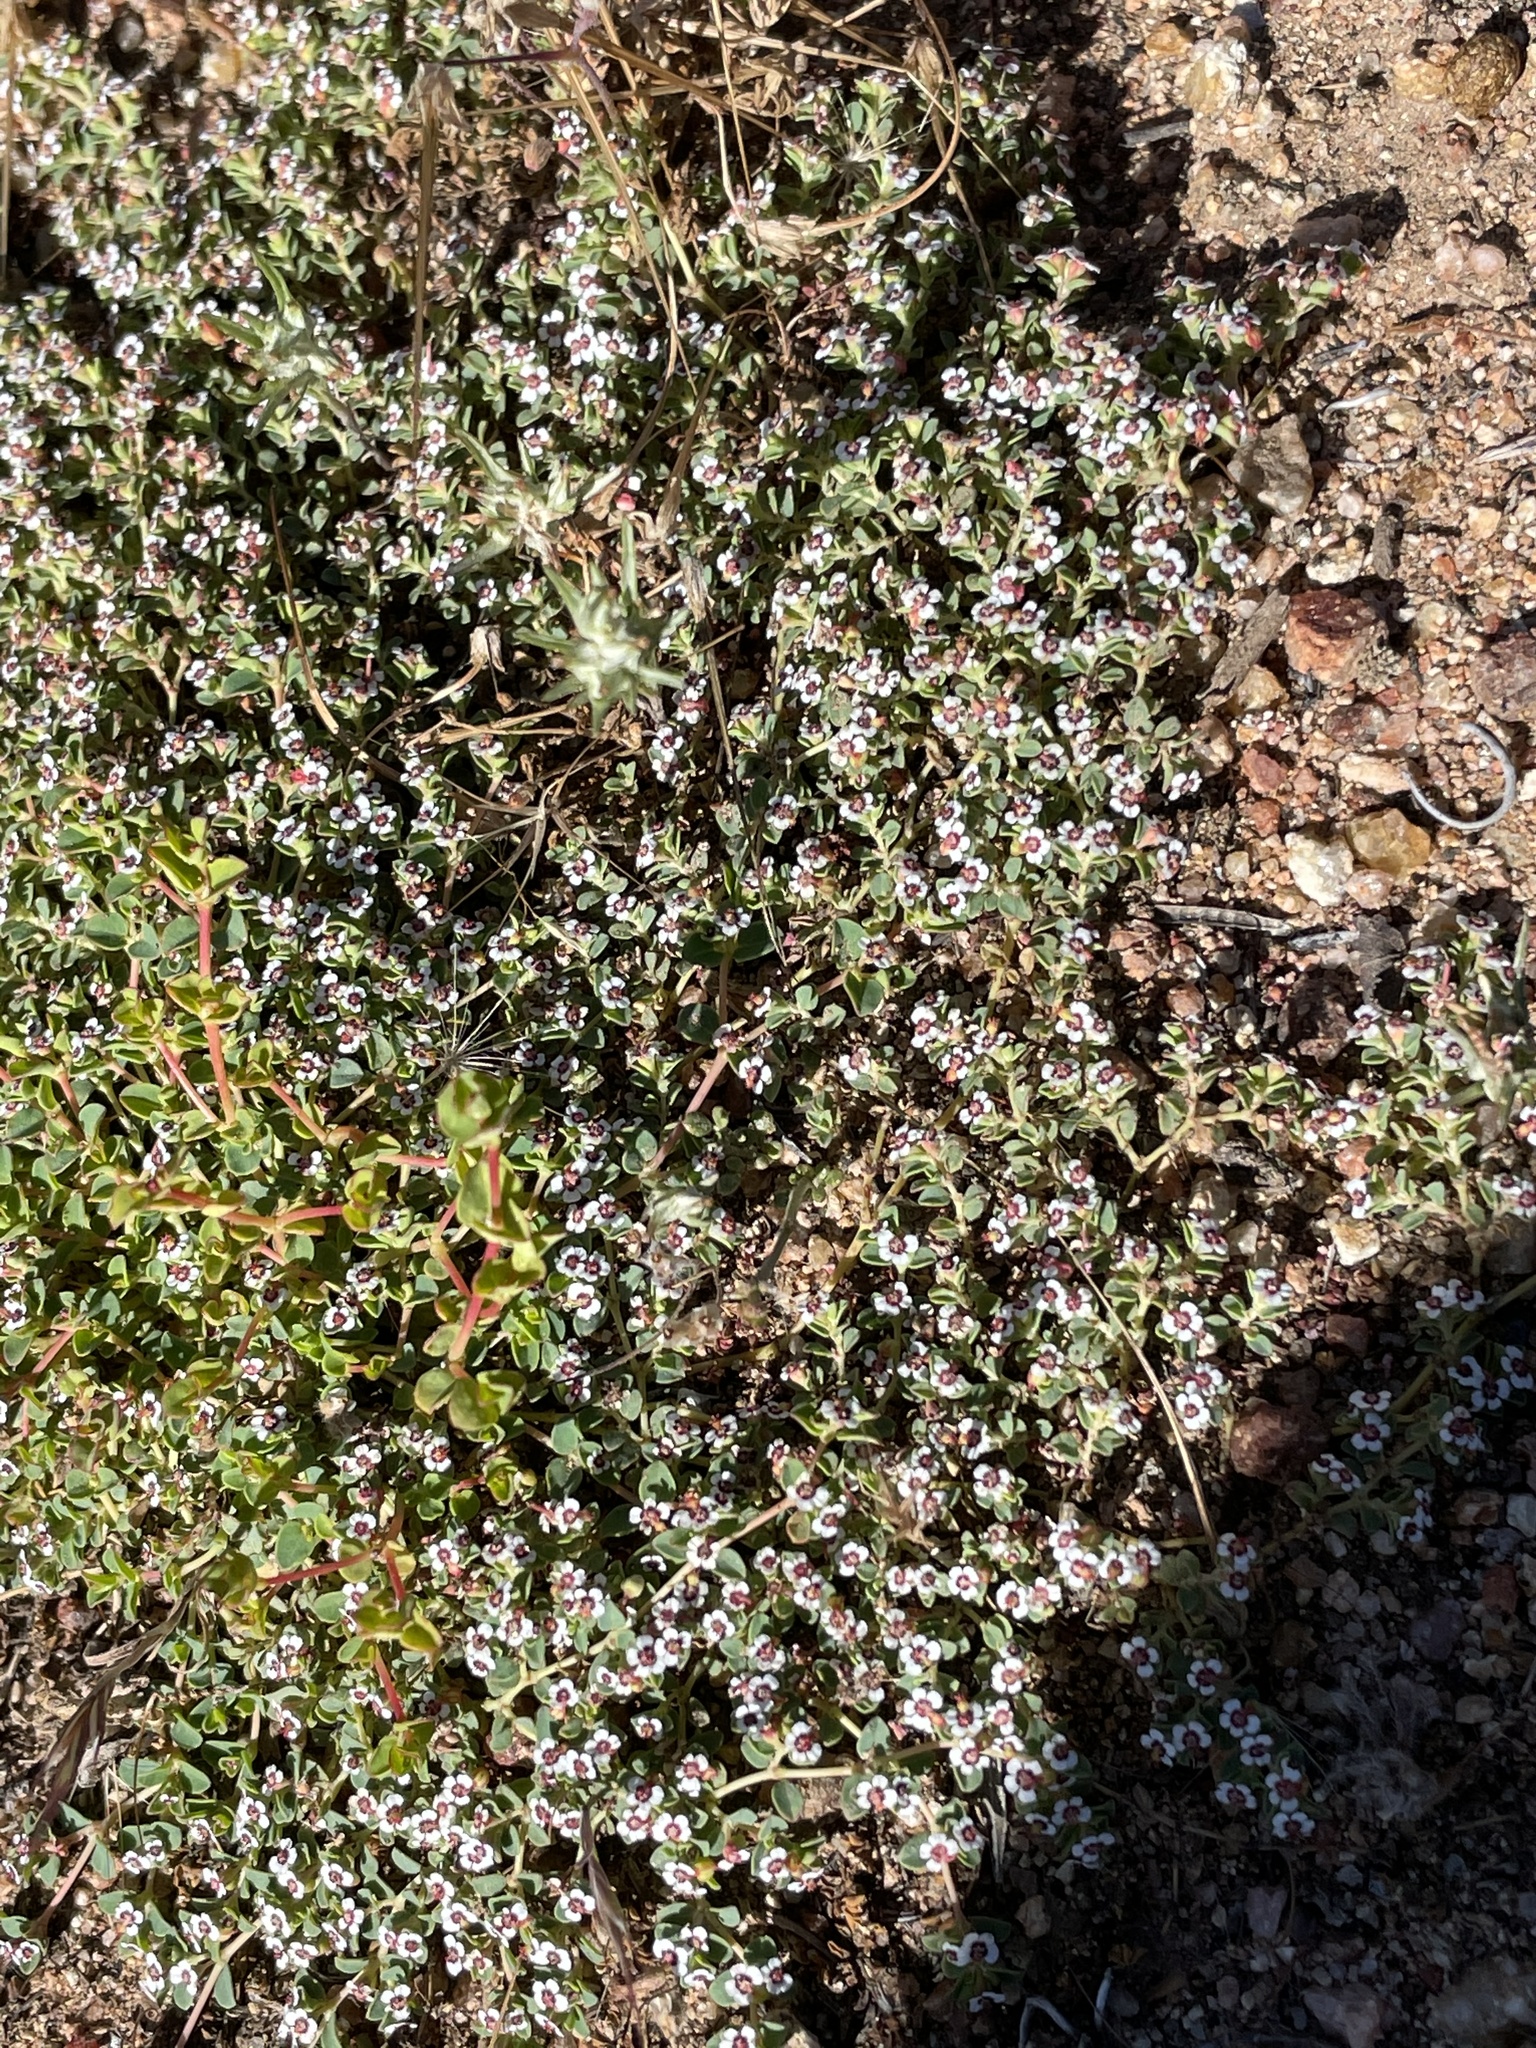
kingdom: Plantae
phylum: Tracheophyta
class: Magnoliopsida
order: Malpighiales
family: Euphorbiaceae
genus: Euphorbia
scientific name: Euphorbia polycarpa
